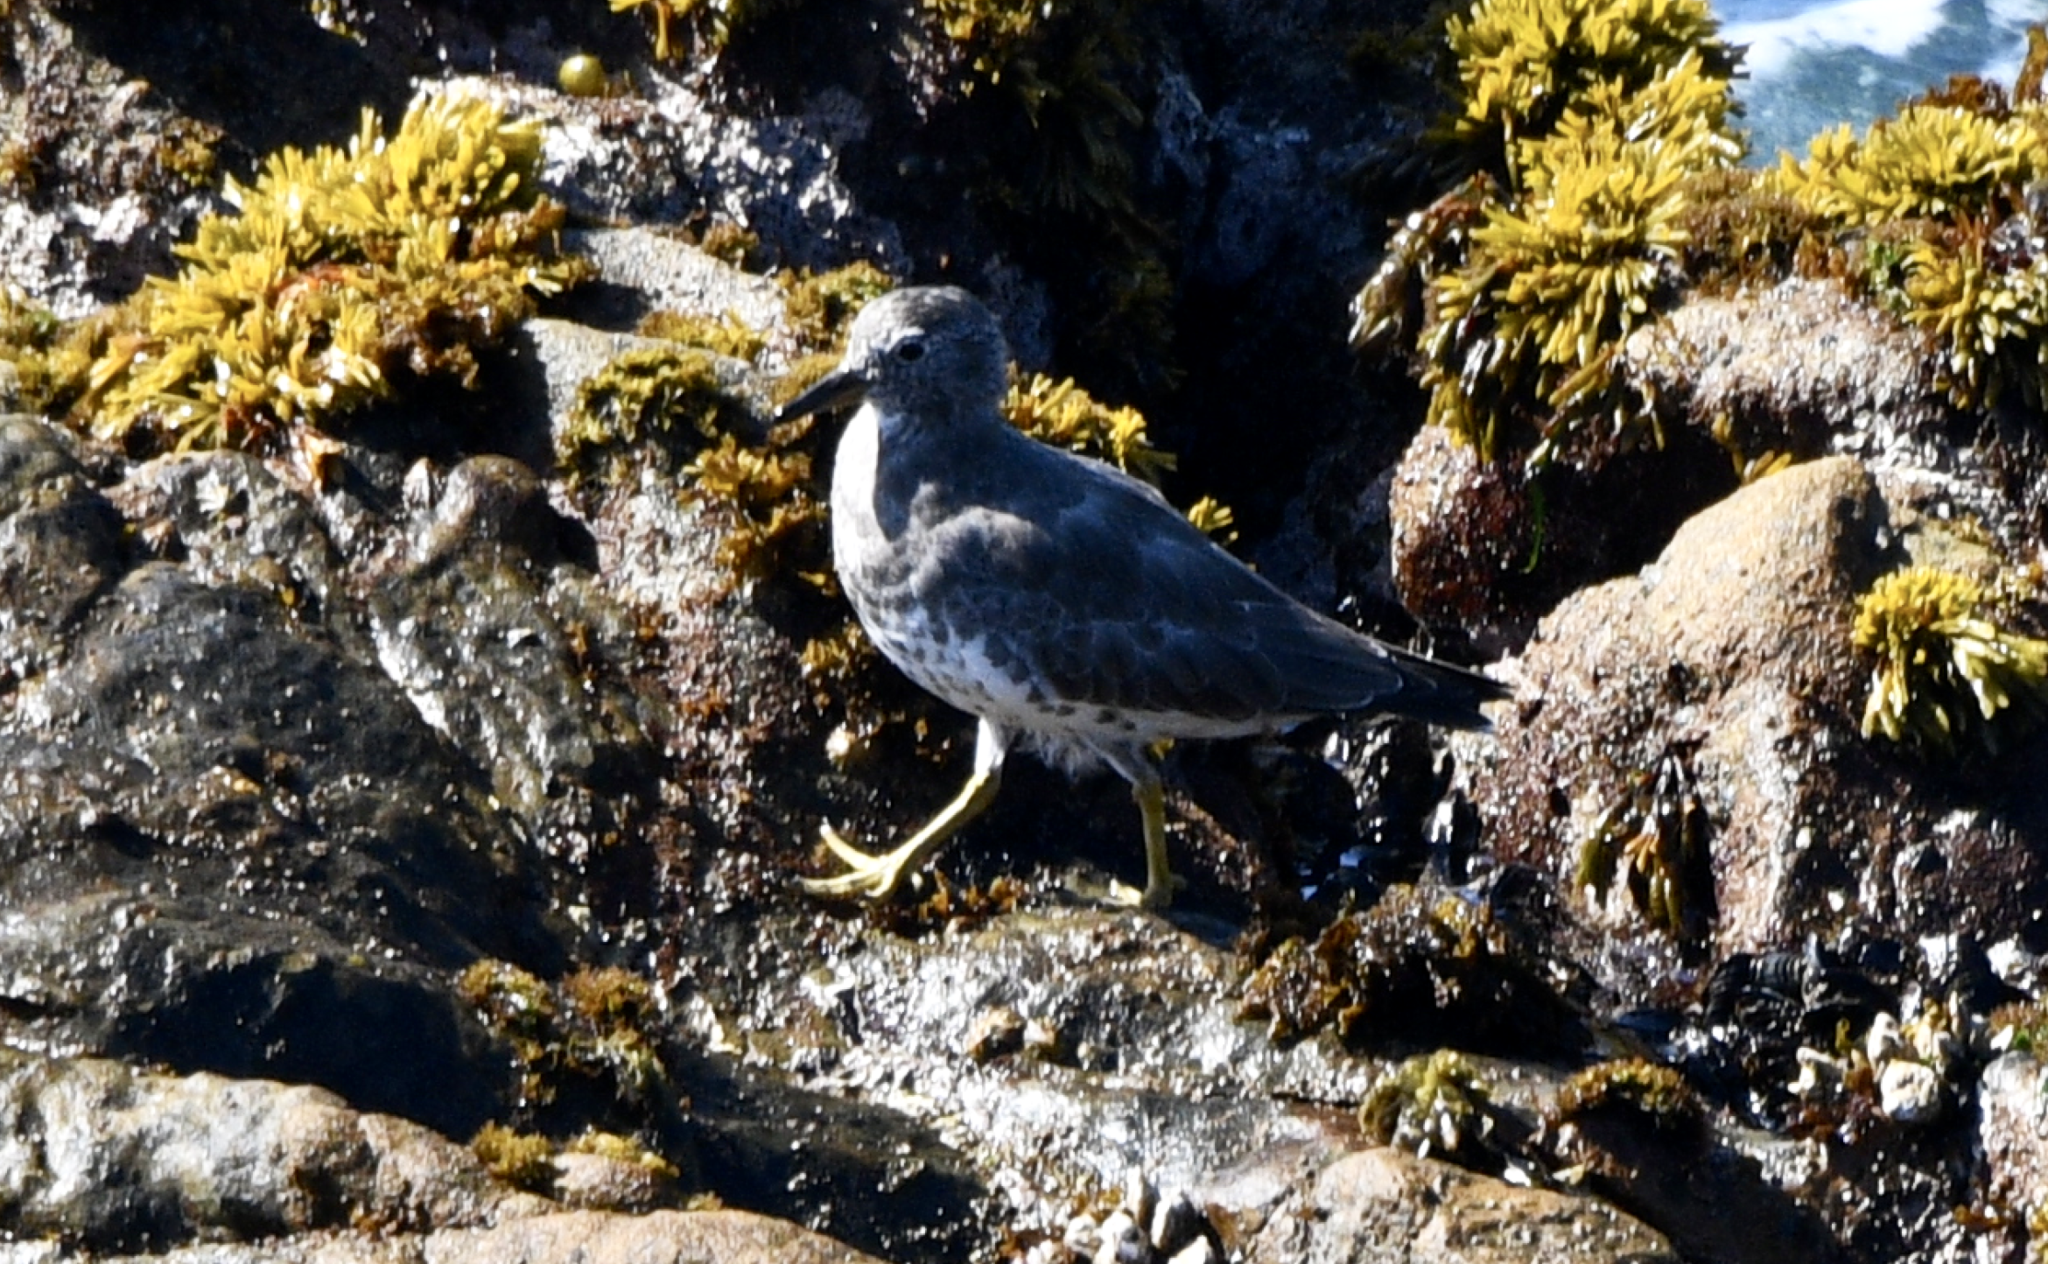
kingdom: Animalia
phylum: Chordata
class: Aves
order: Charadriiformes
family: Scolopacidae
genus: Calidris
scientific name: Calidris virgata
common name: Surfbird
